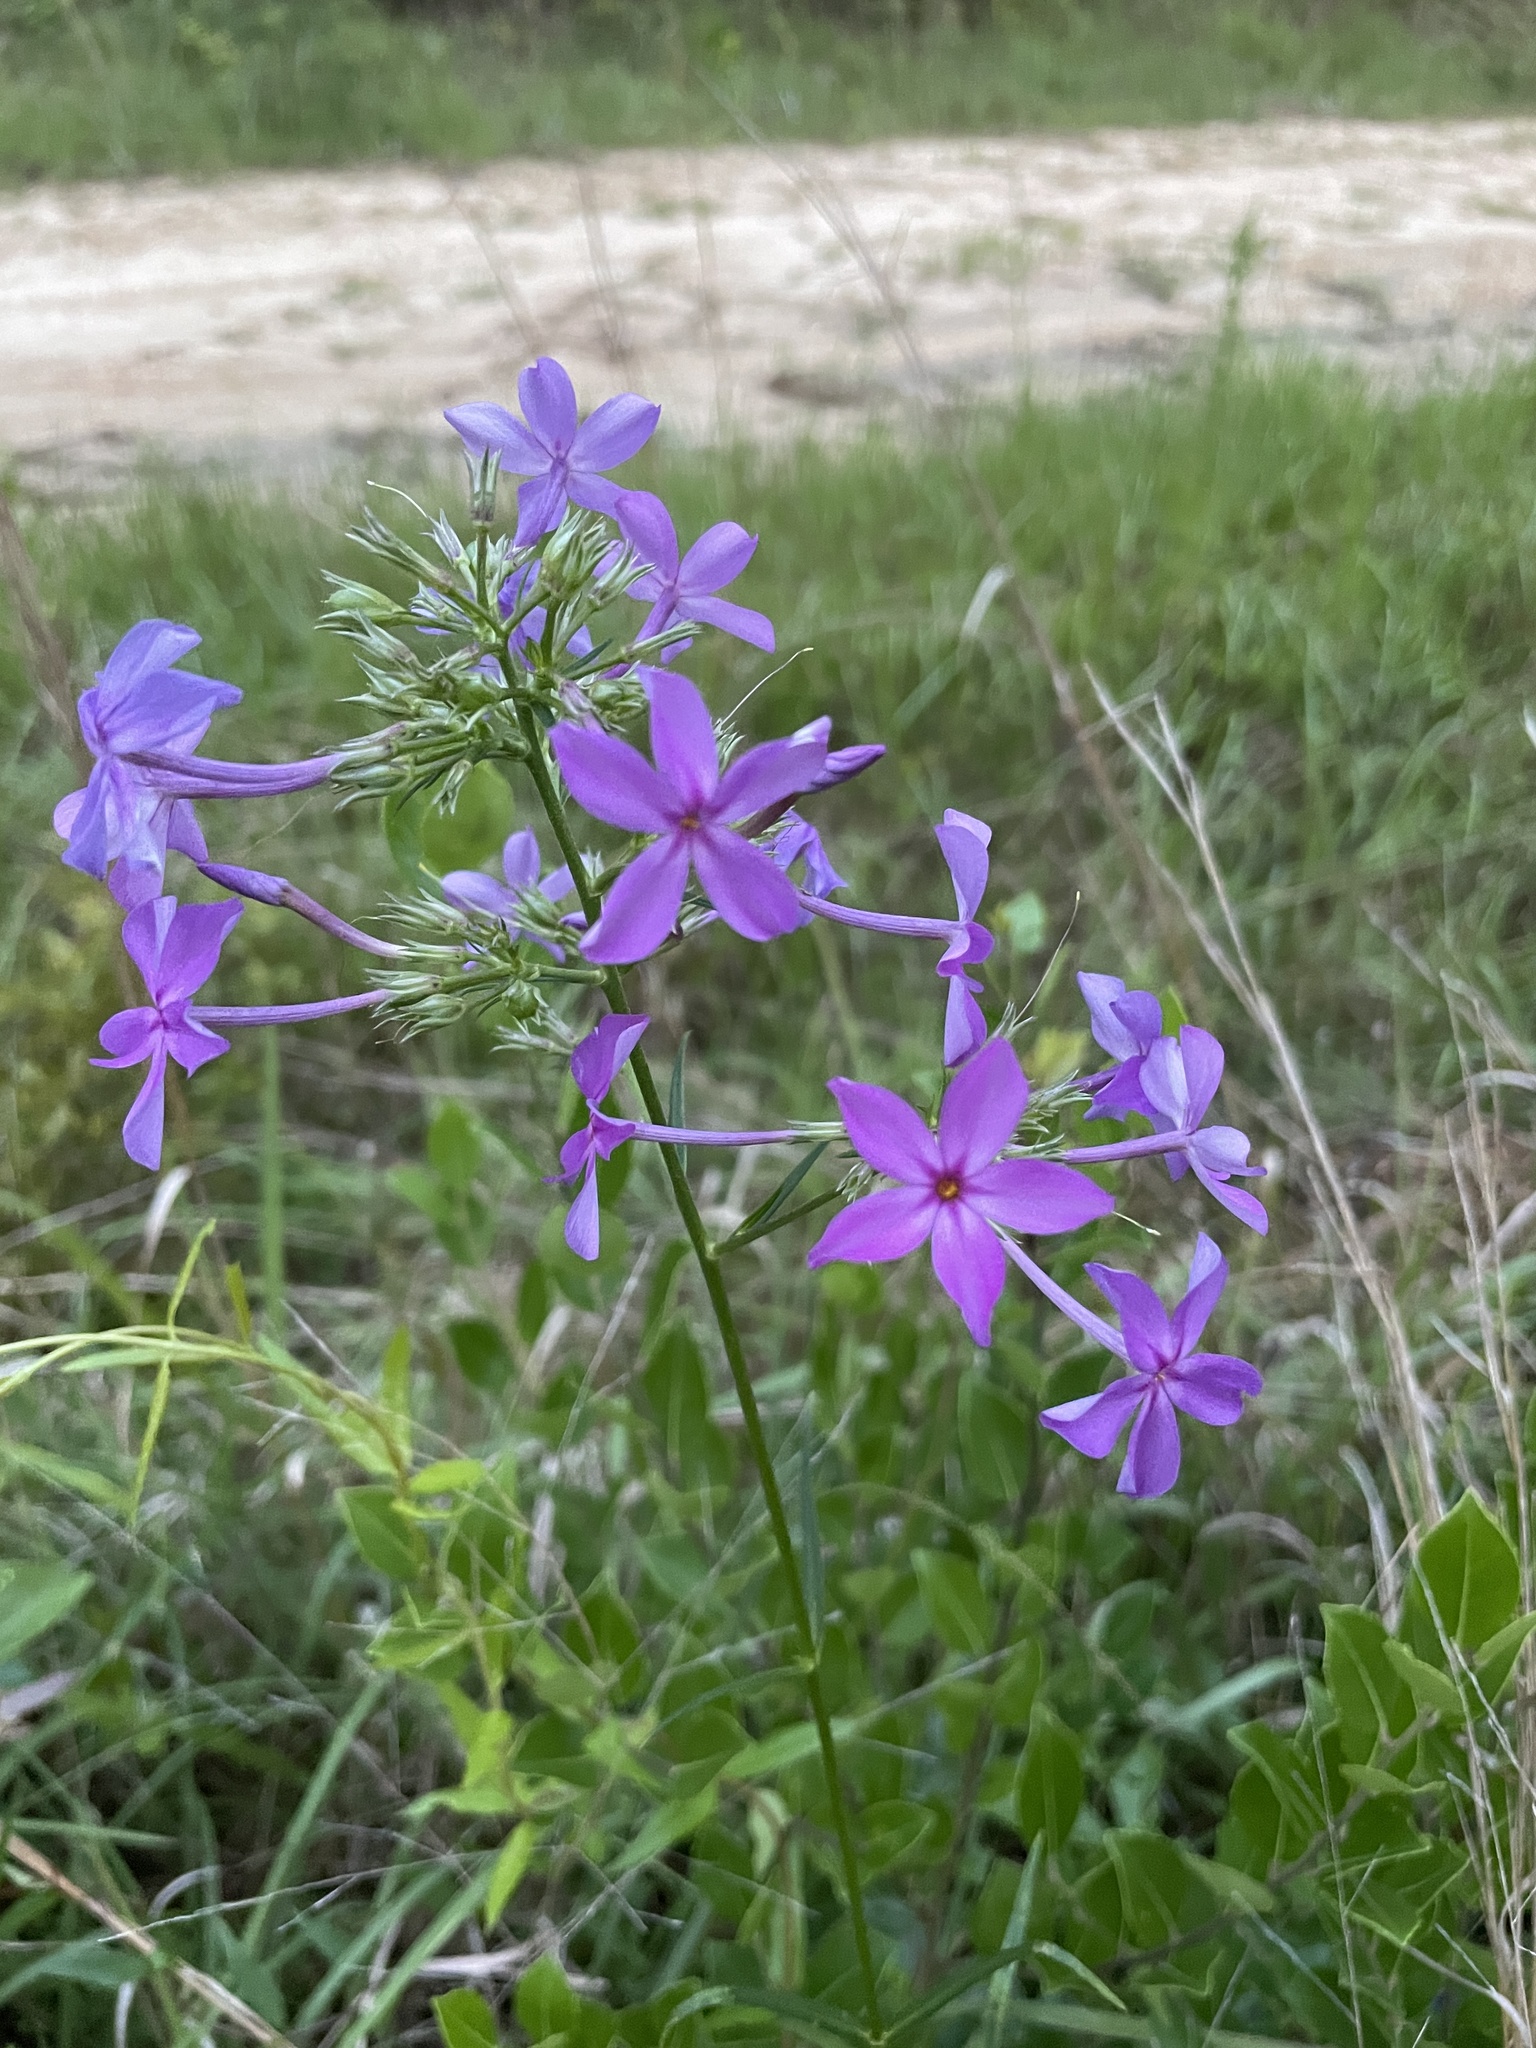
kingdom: Plantae
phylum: Tracheophyta
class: Magnoliopsida
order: Ericales
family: Polemoniaceae
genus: Phlox
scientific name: Phlox carolina
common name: Thick-leaf phlox
